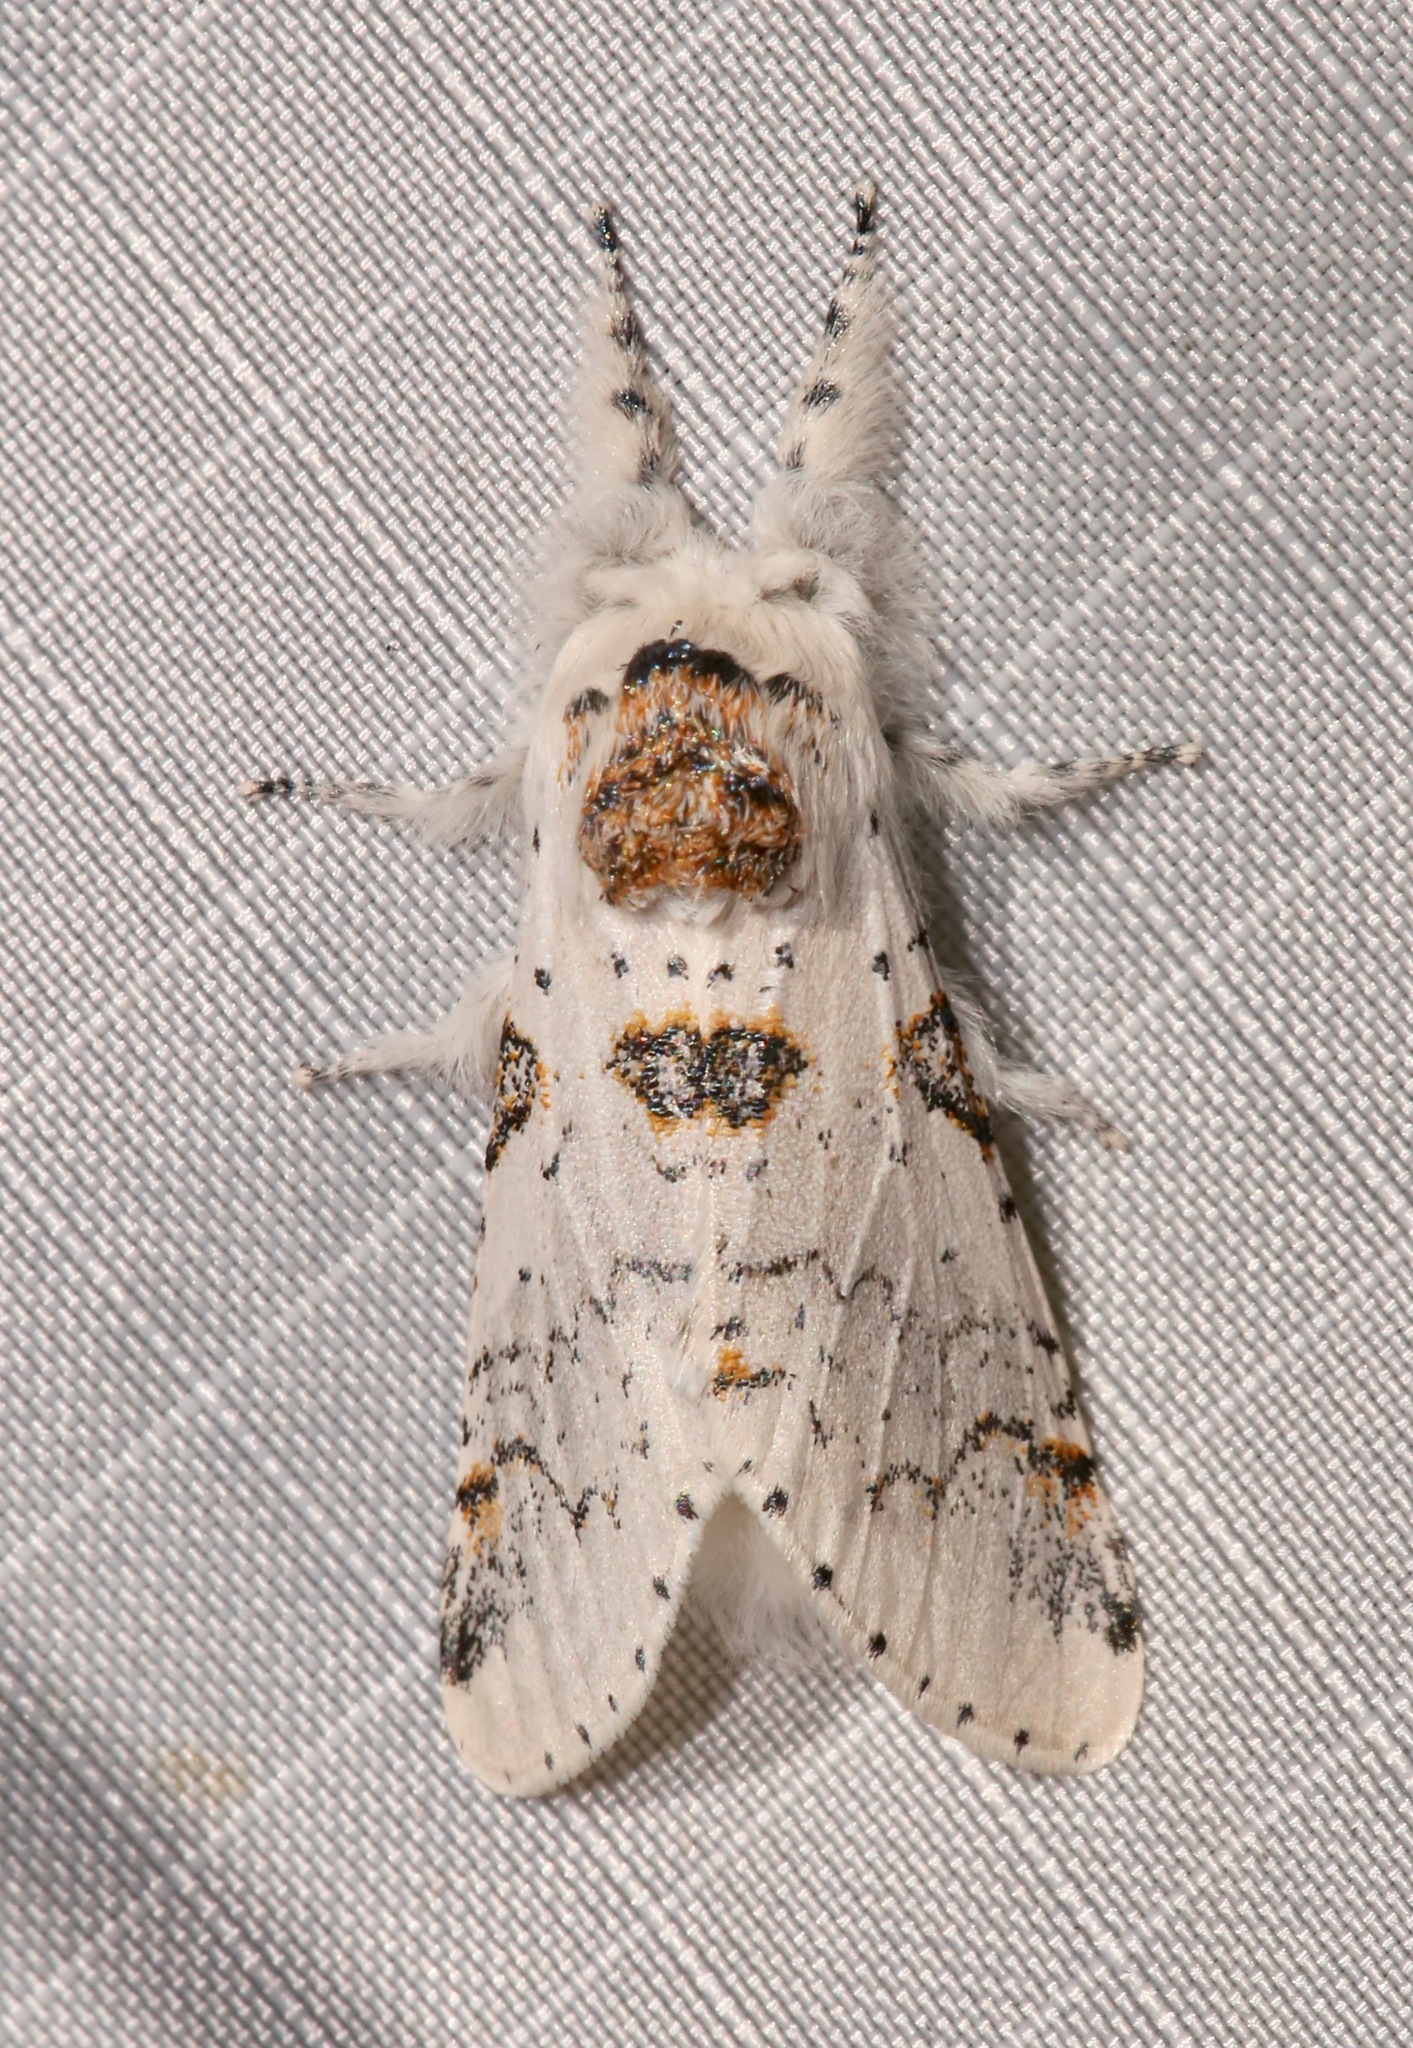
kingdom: Animalia
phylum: Arthropoda
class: Insecta
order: Lepidoptera
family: Notodontidae
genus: Furcula
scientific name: Furcula nivea
